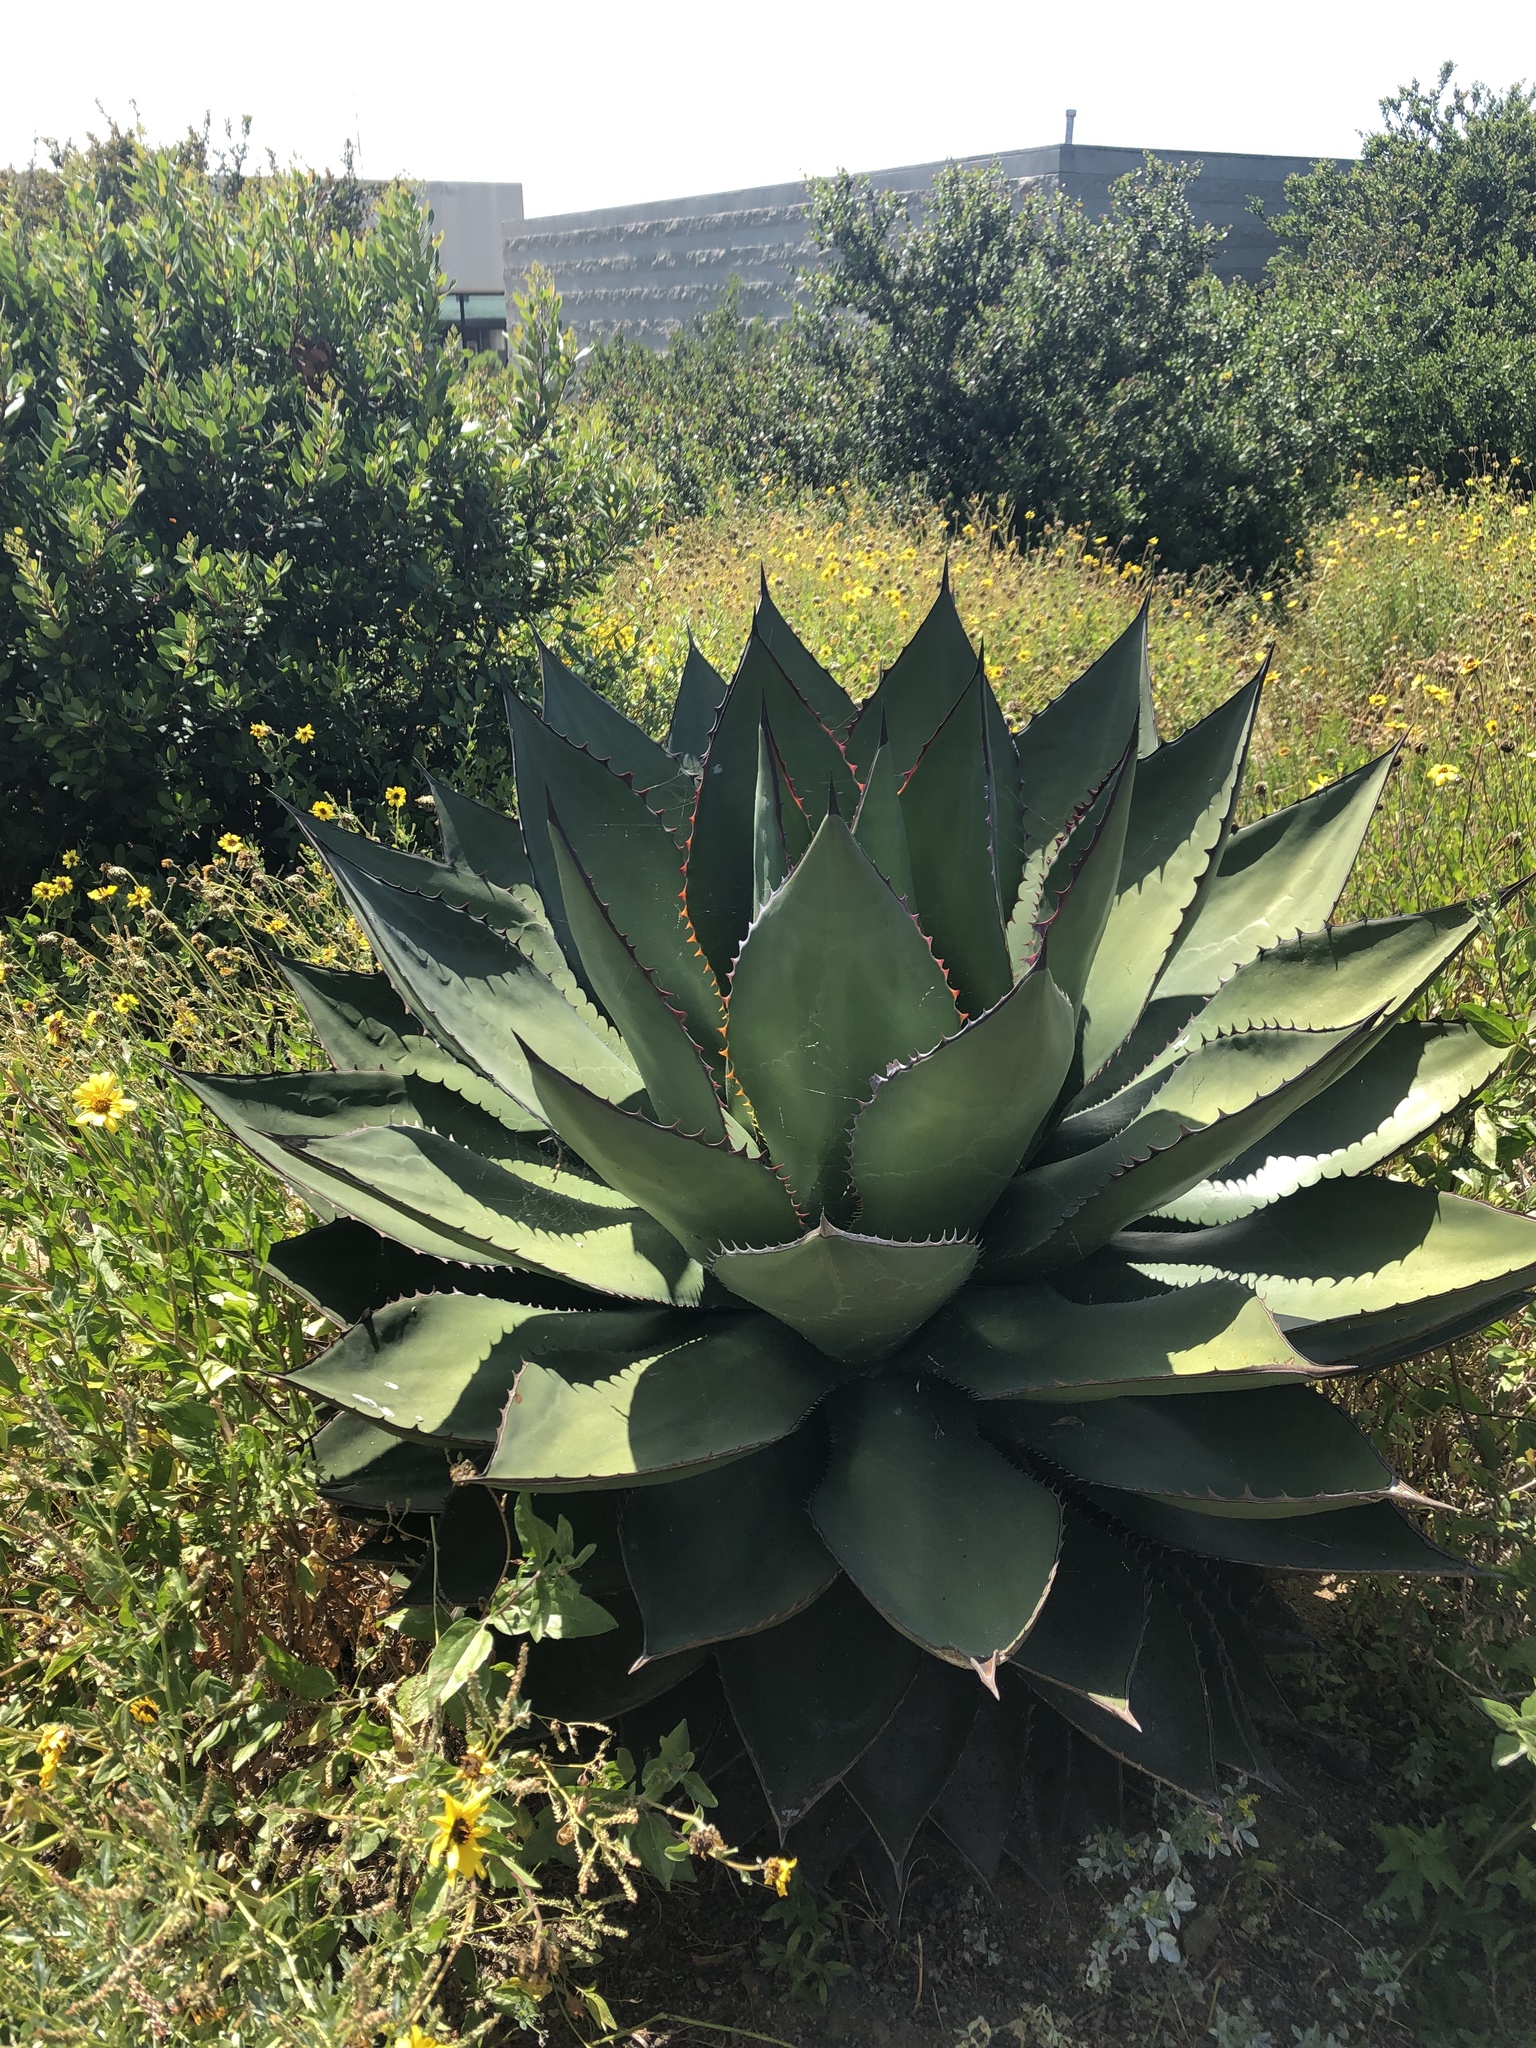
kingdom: Plantae
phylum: Tracheophyta
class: Liliopsida
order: Asparagales
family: Asparagaceae
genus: Agave
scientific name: Agave shawii
